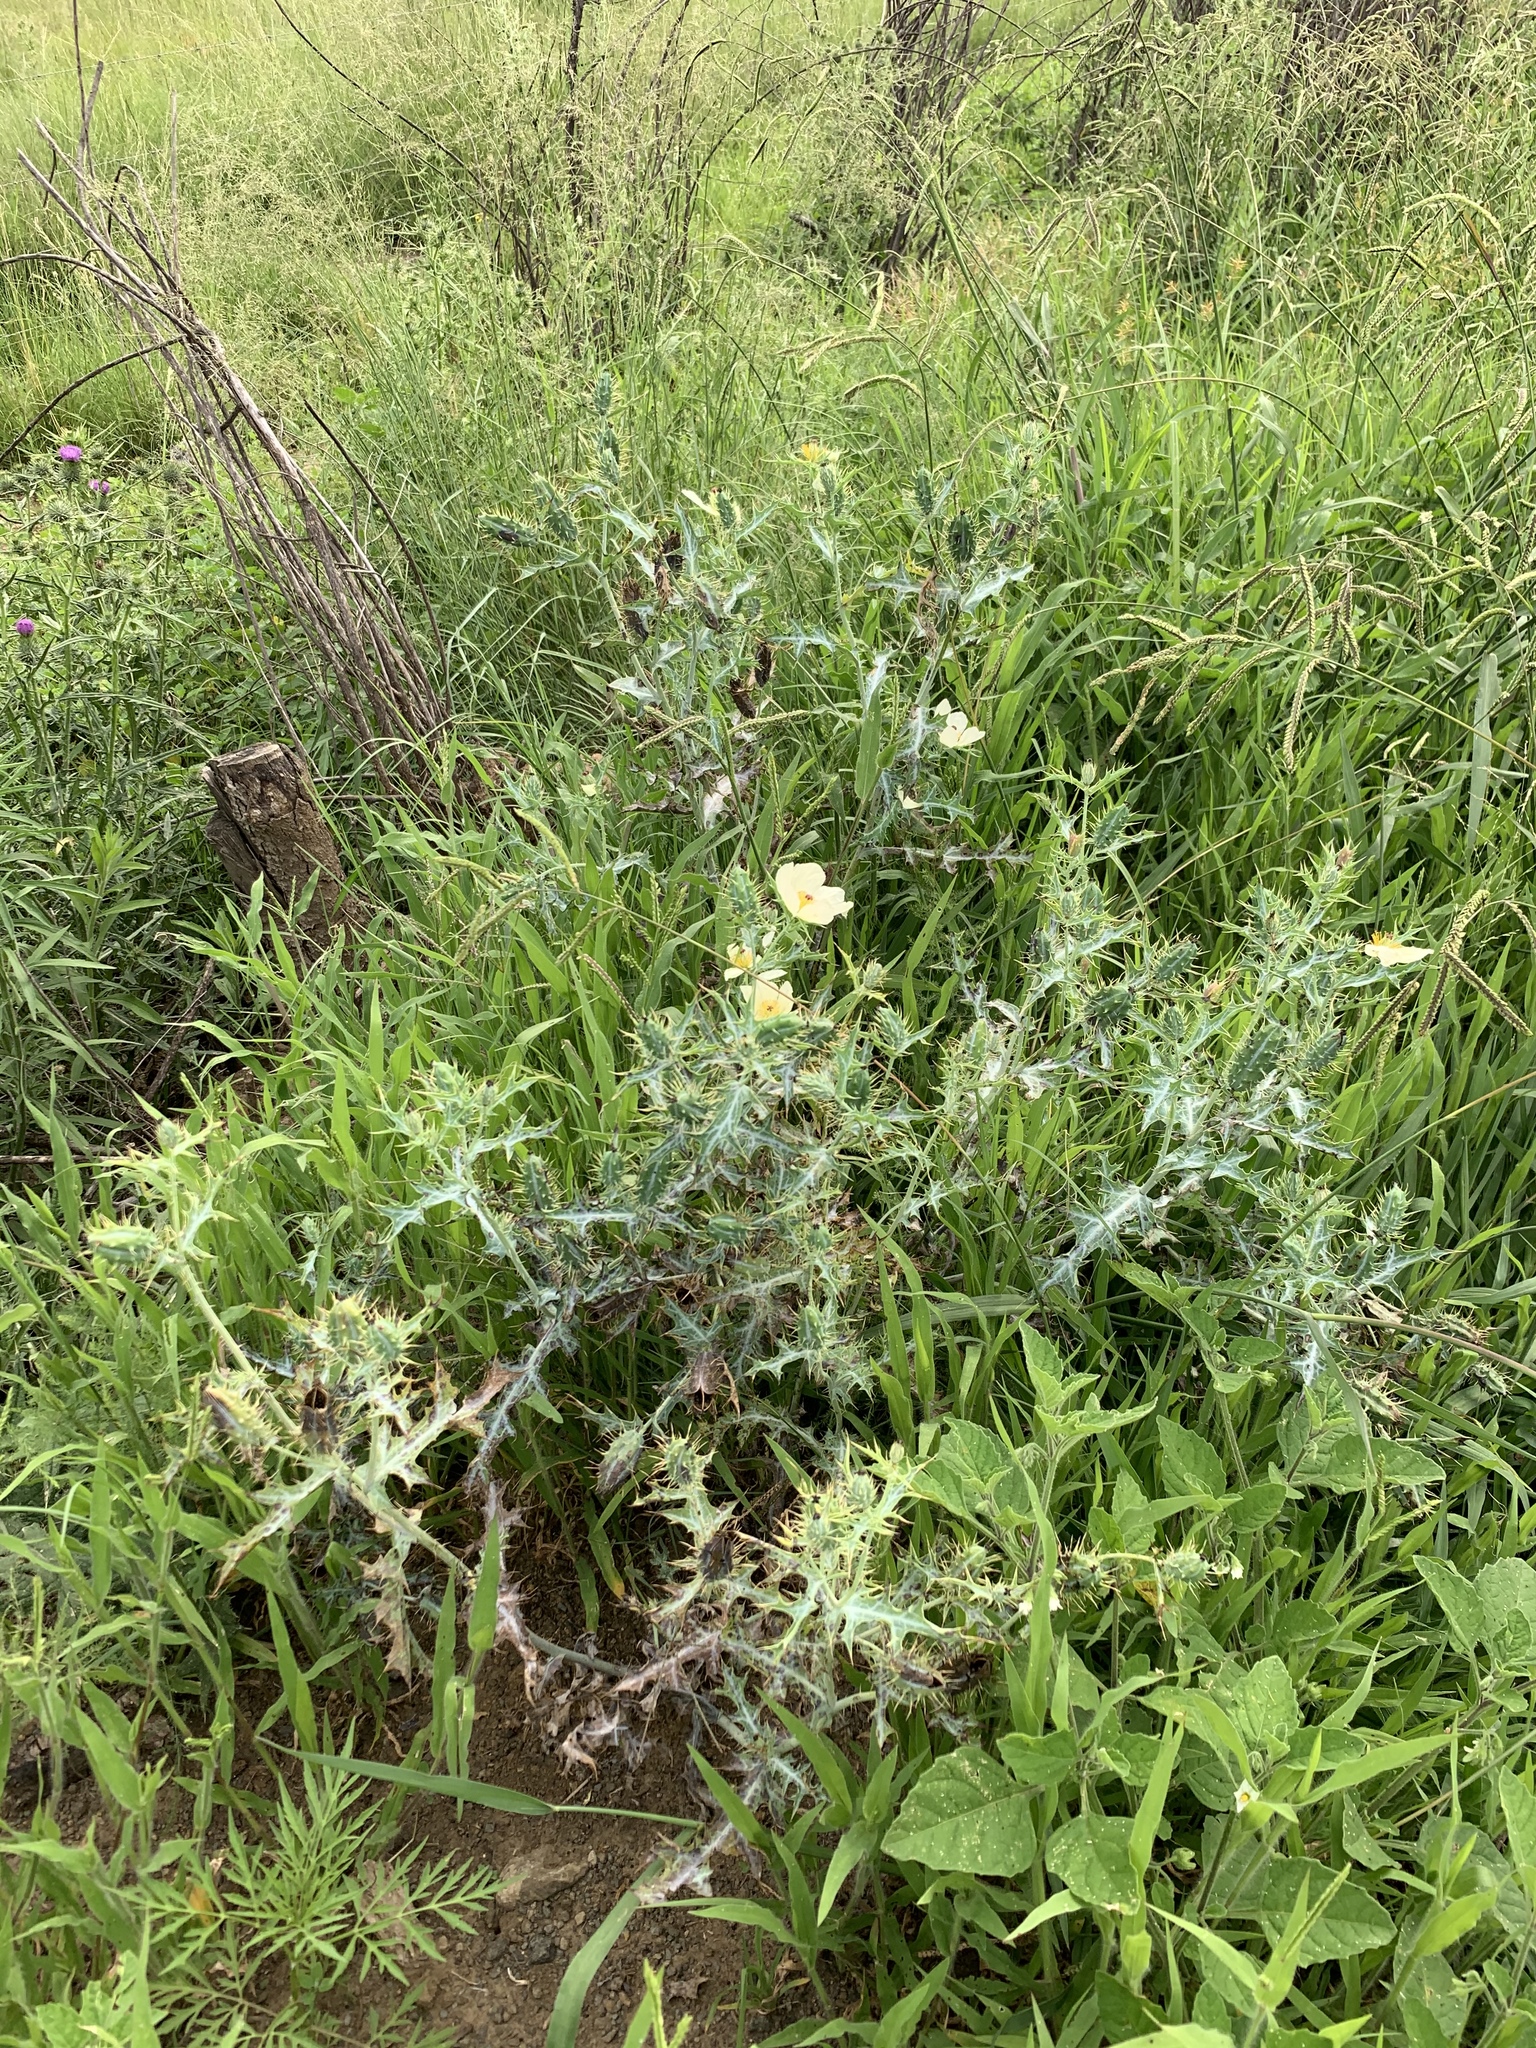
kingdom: Plantae
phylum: Tracheophyta
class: Magnoliopsida
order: Ranunculales
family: Papaveraceae
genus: Argemone
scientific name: Argemone ochroleuca
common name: White-flower mexican-poppy
